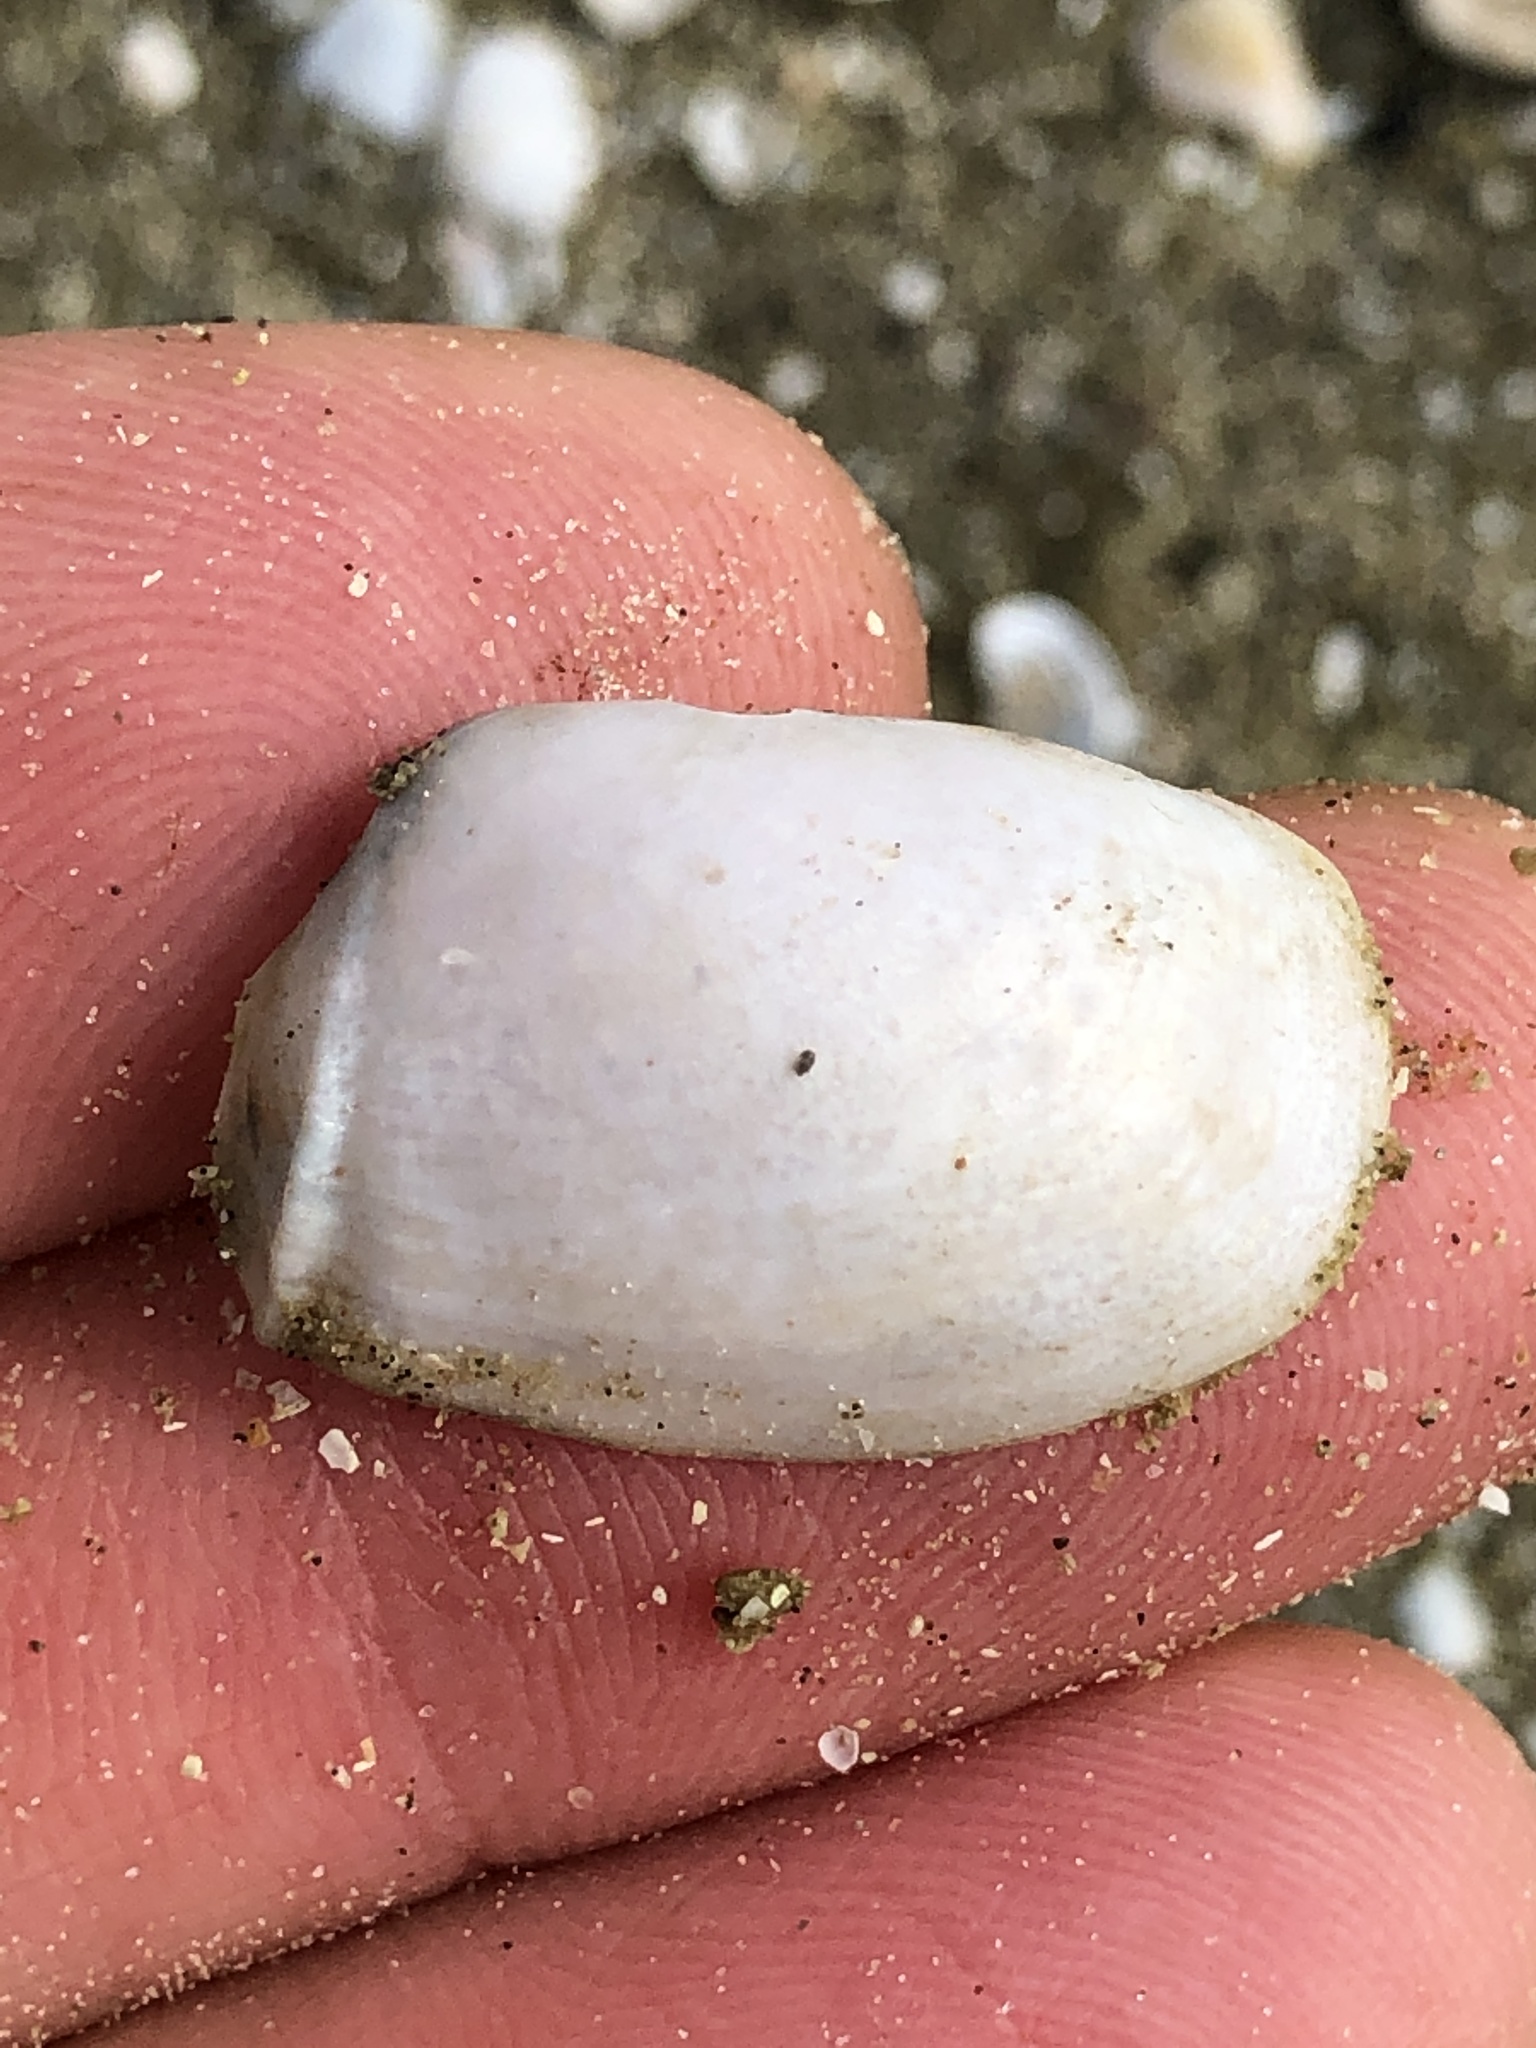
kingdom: Animalia
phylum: Mollusca
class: Bivalvia
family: Periplomatidae
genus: Periploma
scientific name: Periploma inequale
